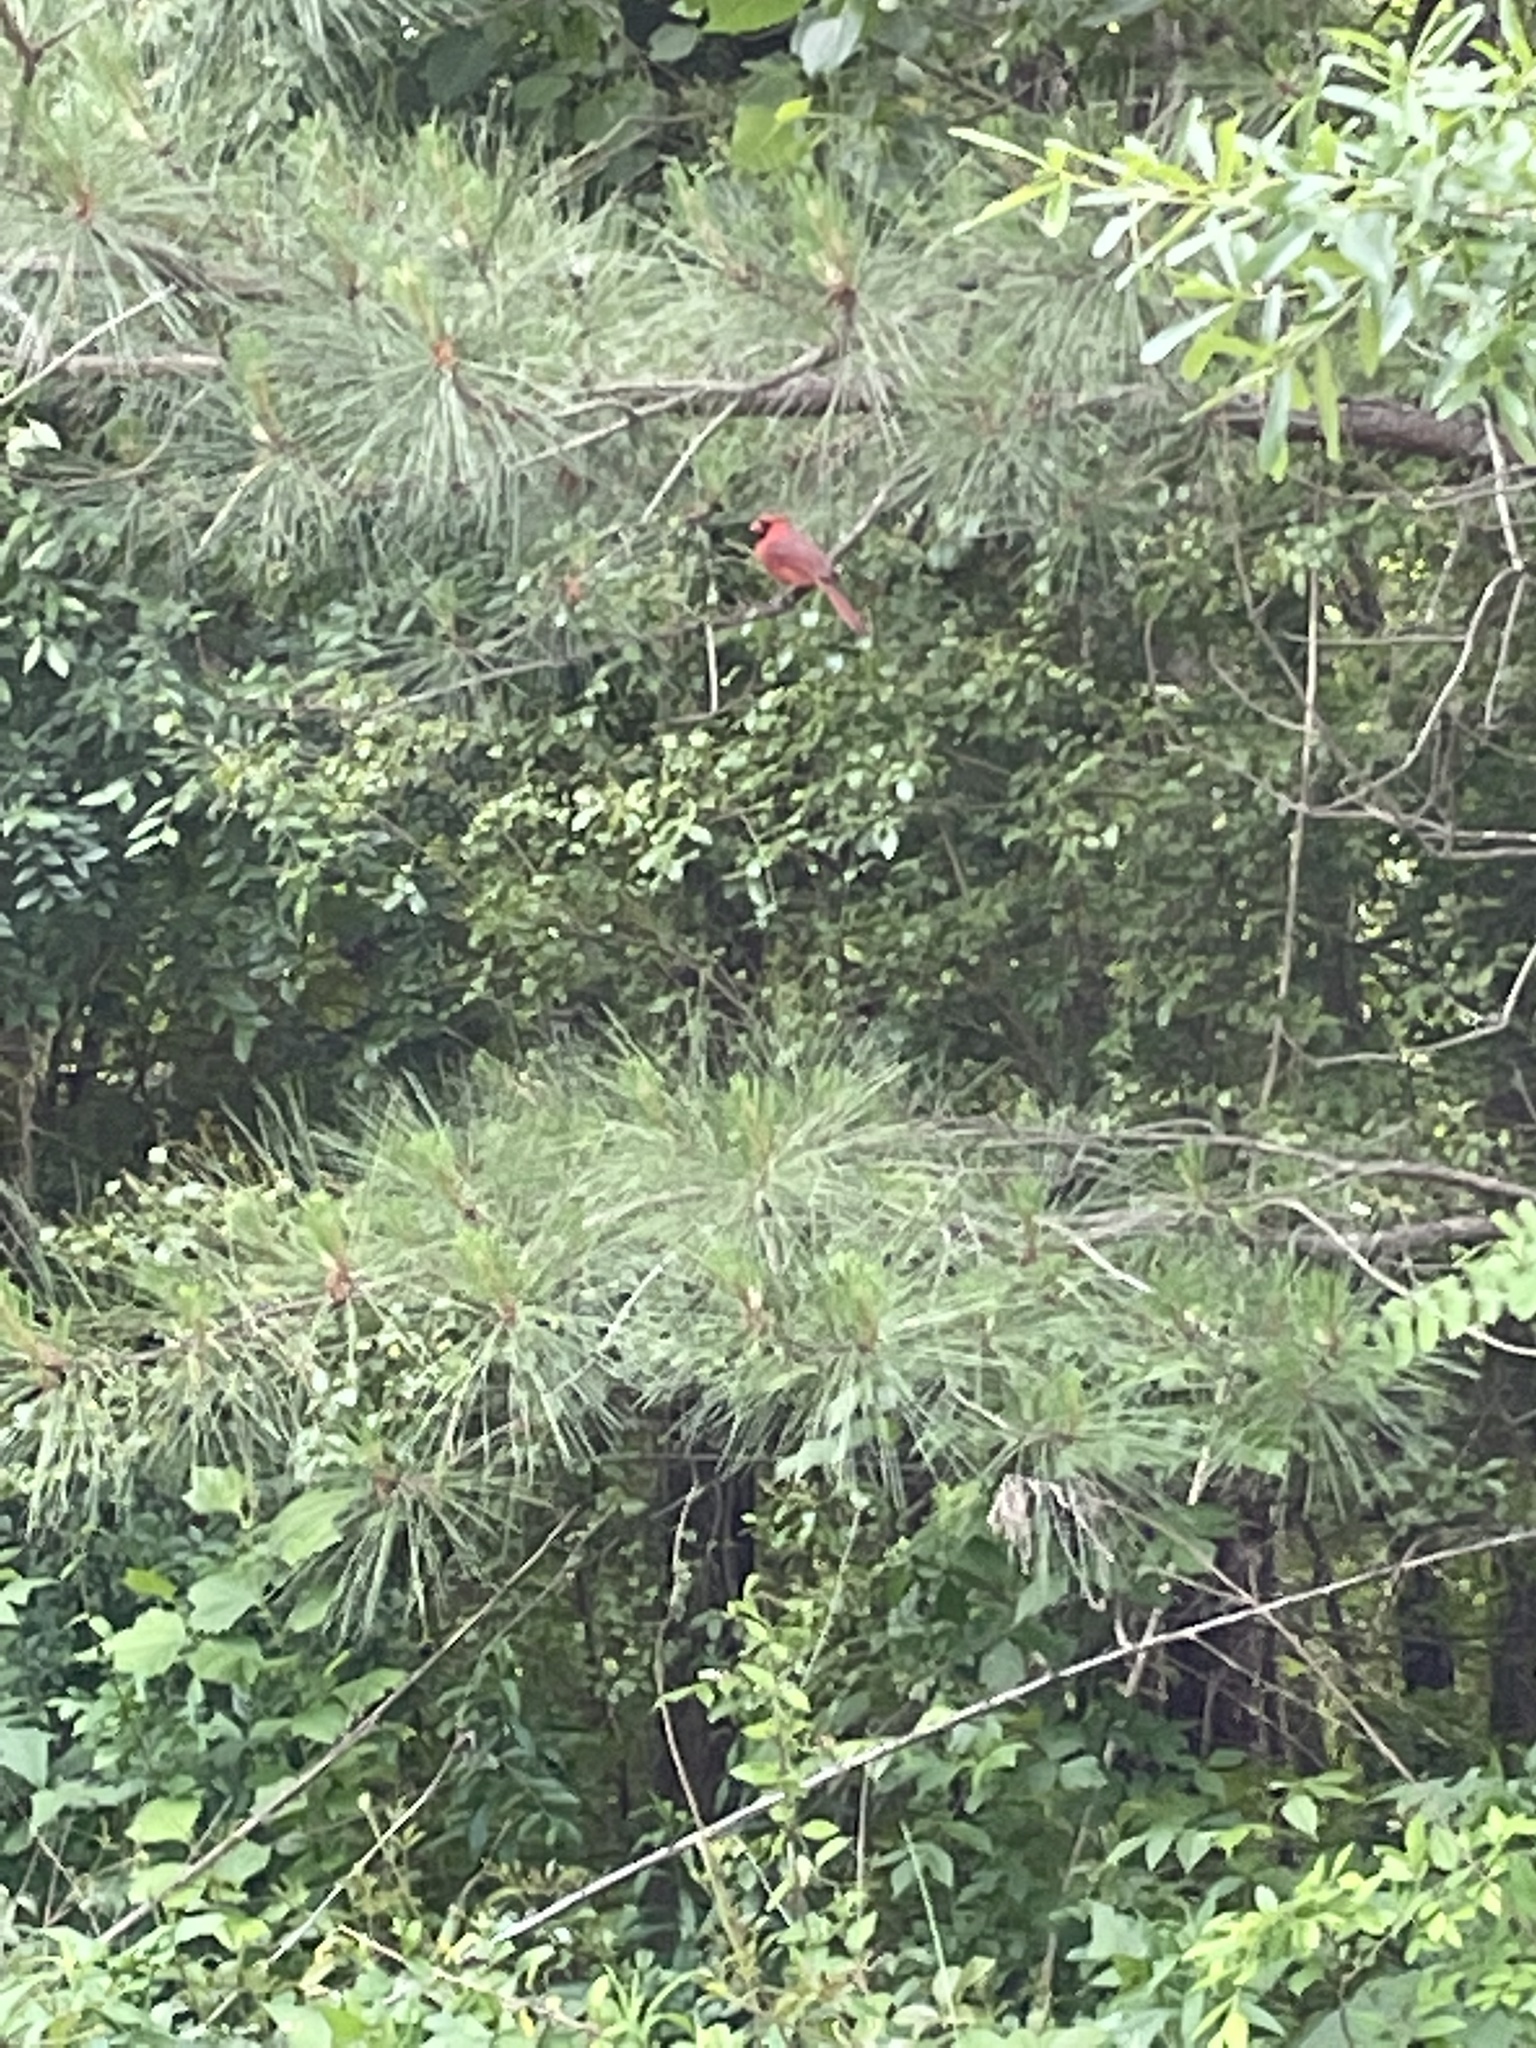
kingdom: Animalia
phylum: Chordata
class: Aves
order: Passeriformes
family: Cardinalidae
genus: Cardinalis
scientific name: Cardinalis cardinalis
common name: Northern cardinal
